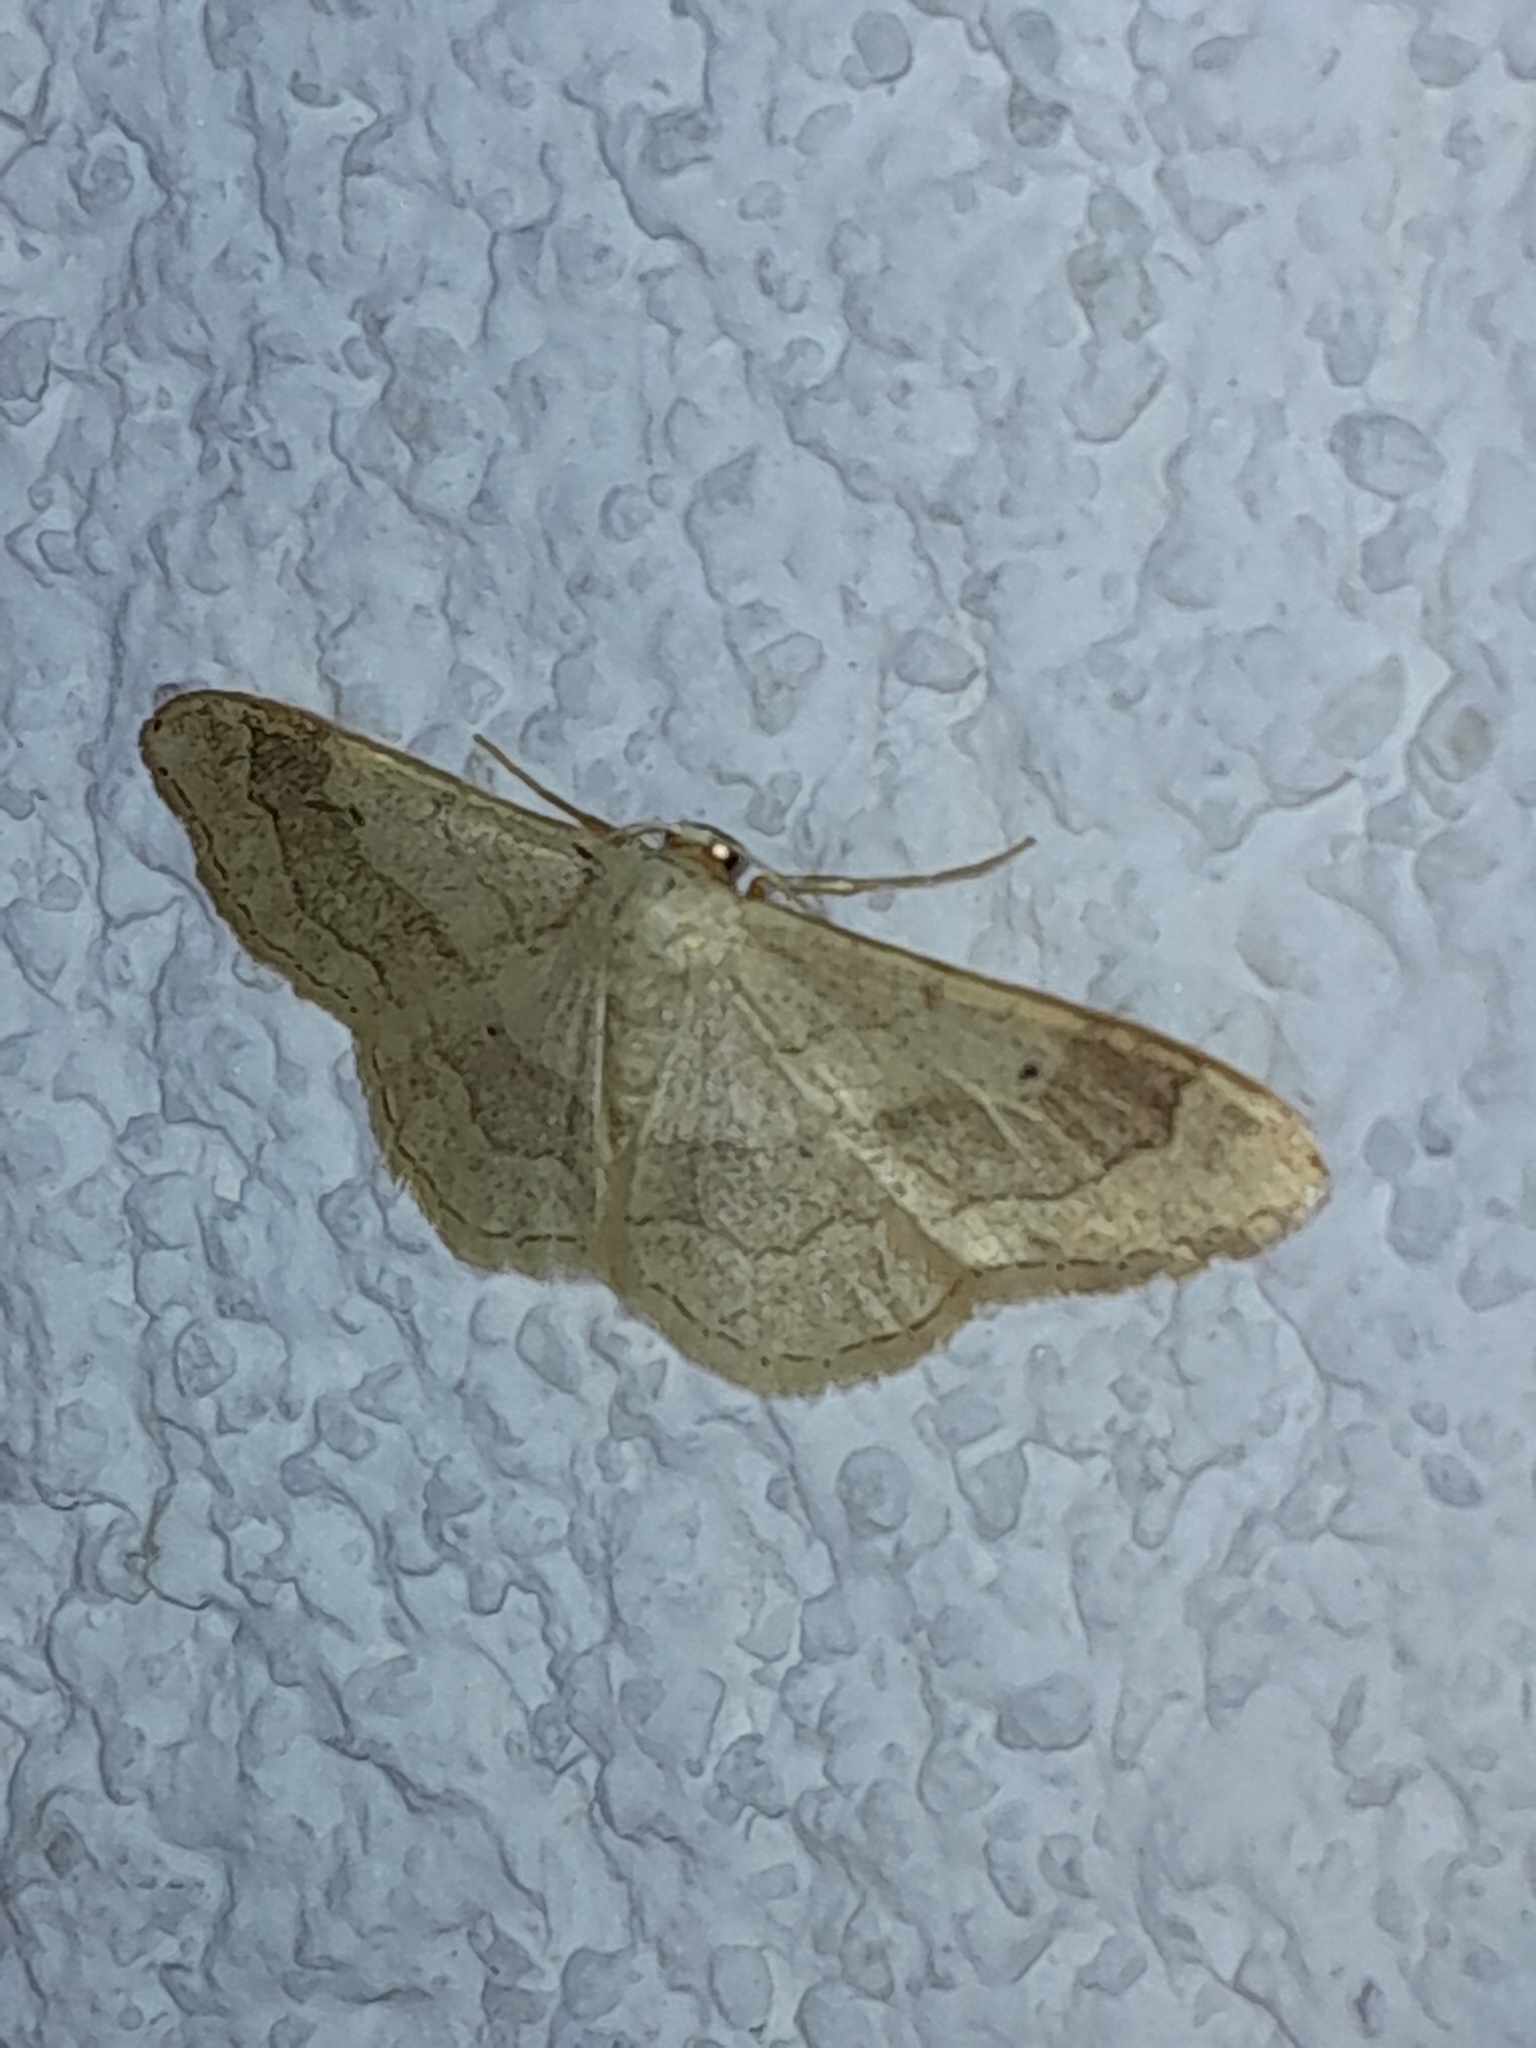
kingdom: Animalia
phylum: Arthropoda
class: Insecta
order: Lepidoptera
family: Geometridae
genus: Idaea
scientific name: Idaea aversata
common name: Riband wave
